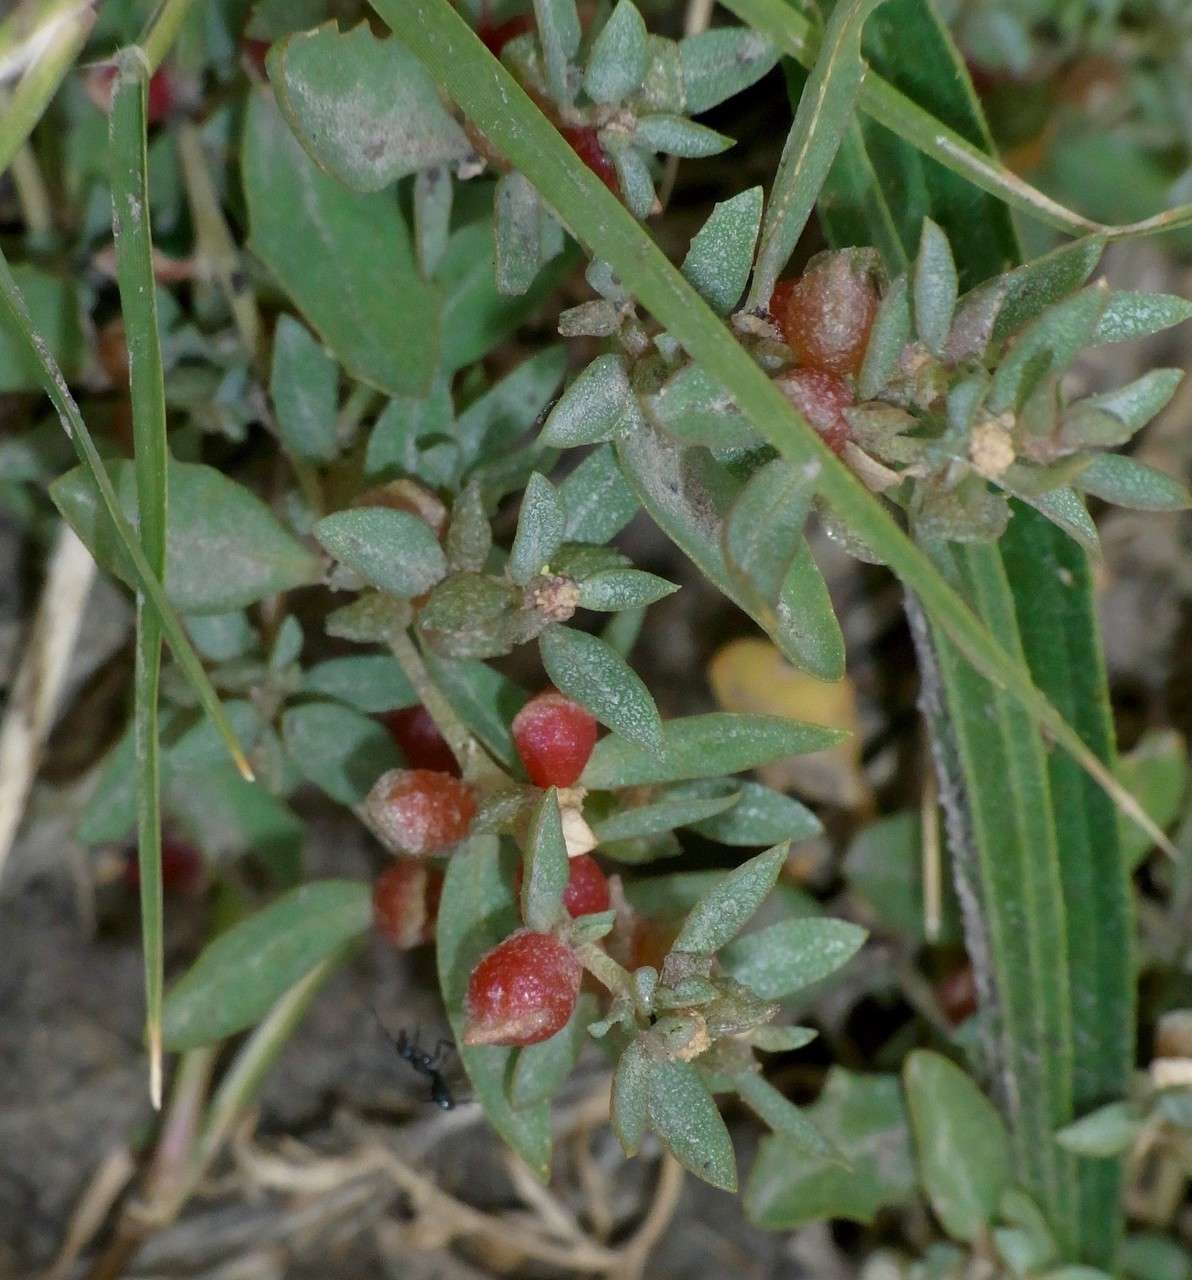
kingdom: Plantae
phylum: Tracheophyta
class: Magnoliopsida
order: Caryophyllales
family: Amaranthaceae
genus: Atriplex
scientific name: Atriplex semibaccata
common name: Australian saltbush
